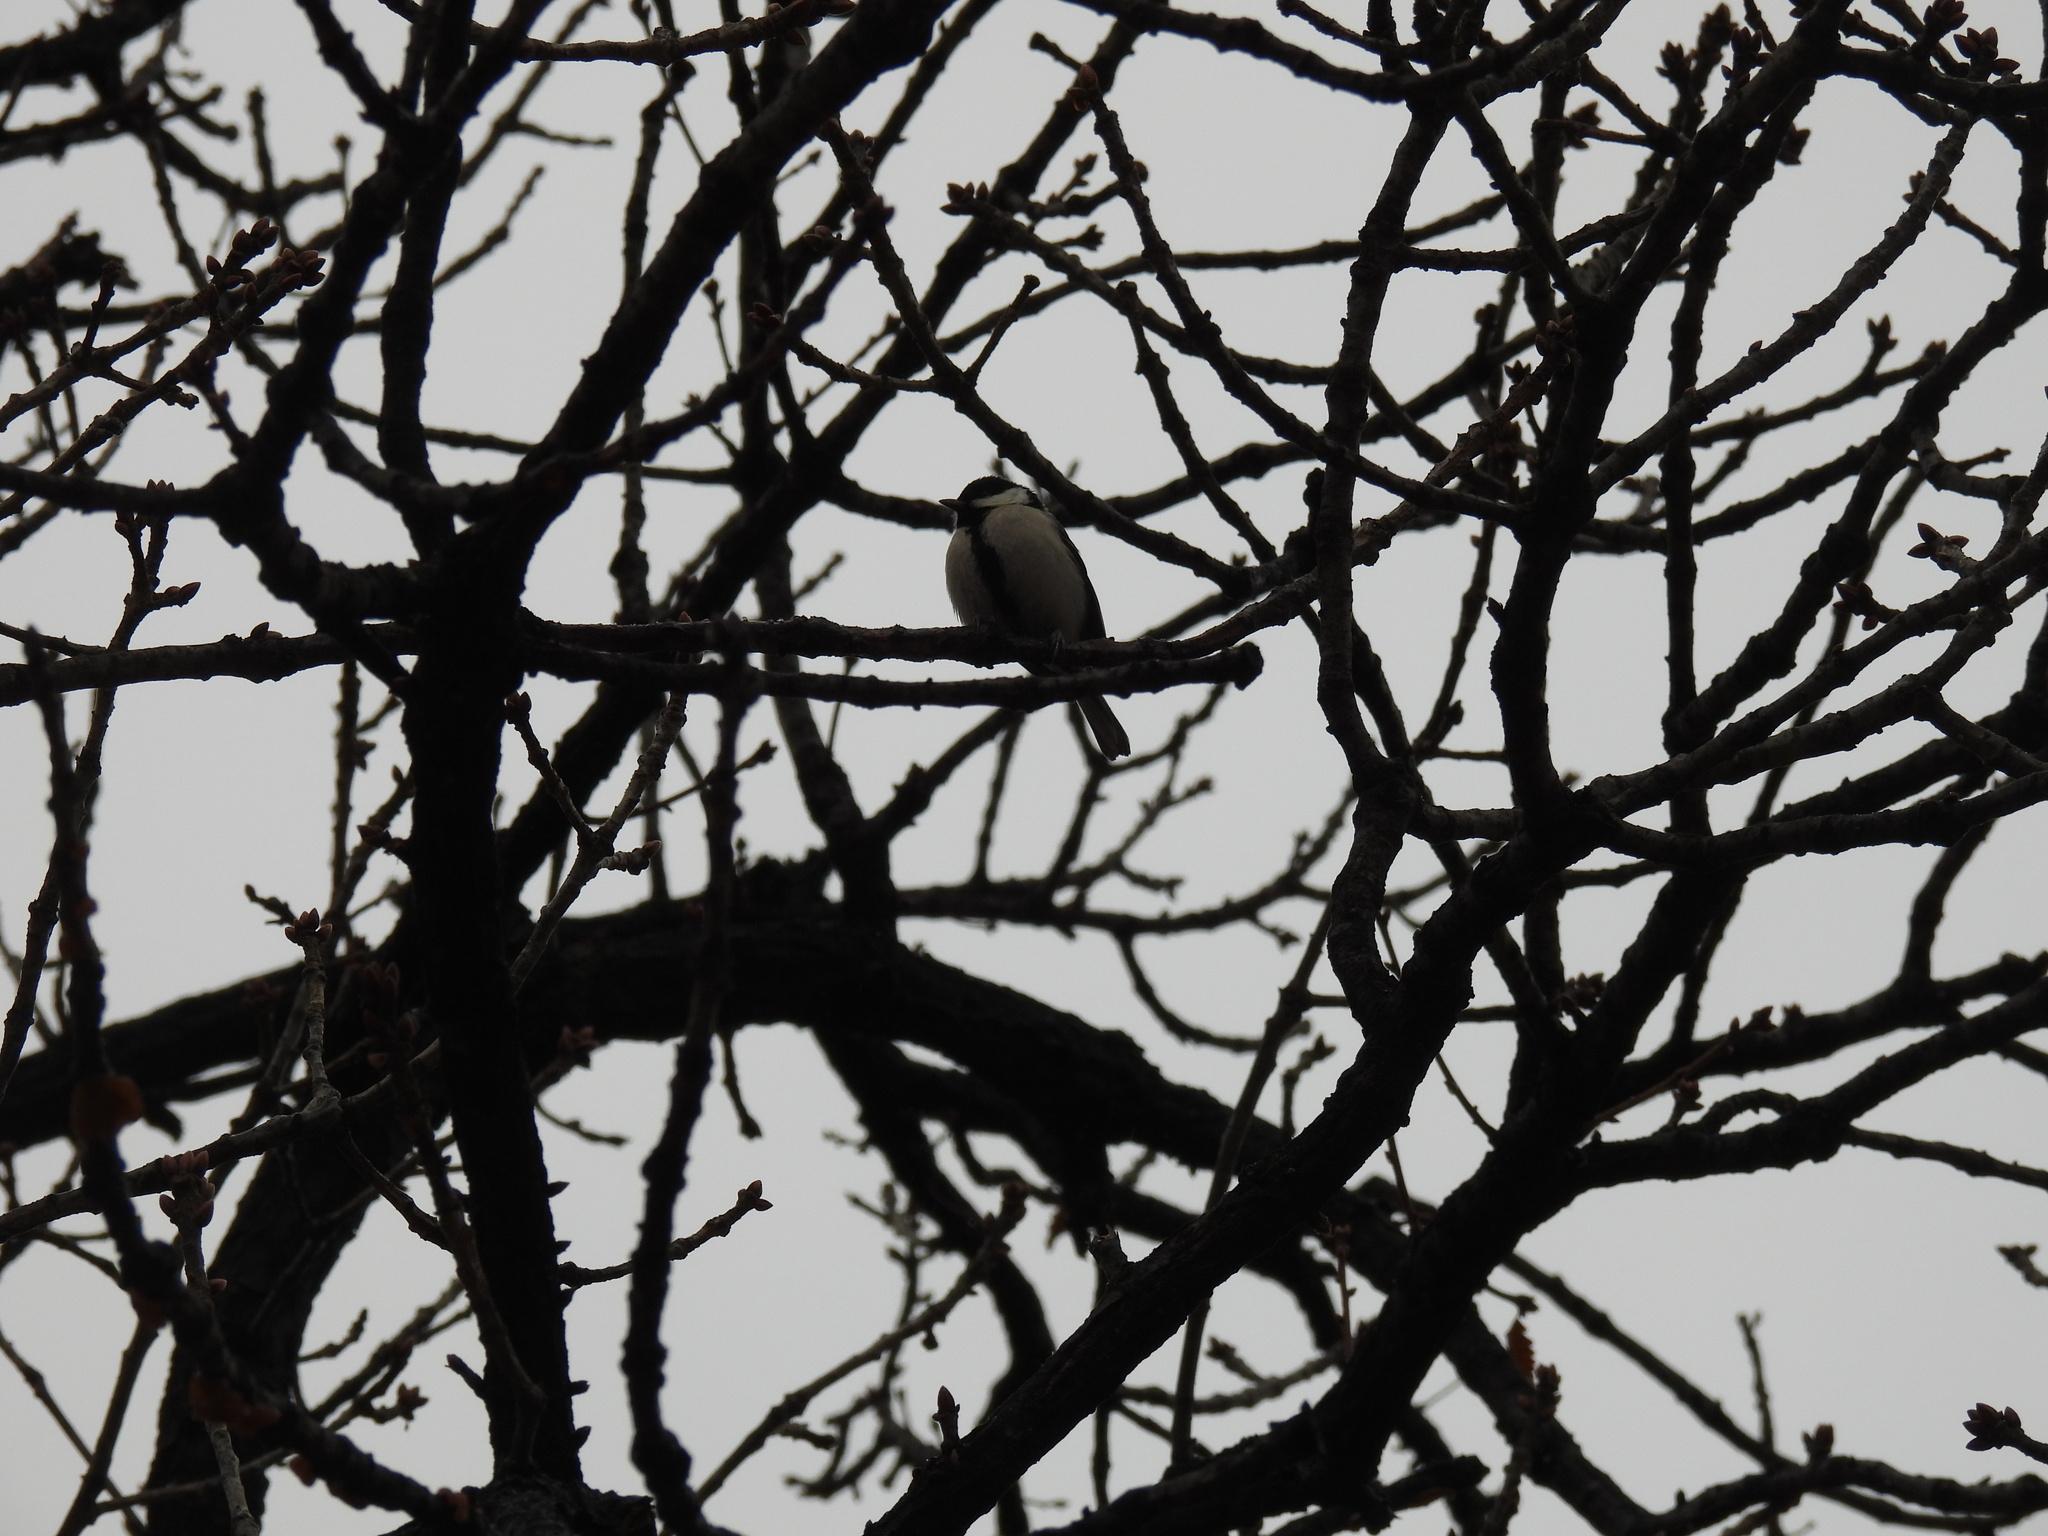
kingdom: Animalia
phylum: Chordata
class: Aves
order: Passeriformes
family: Paridae
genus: Parus
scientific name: Parus minor
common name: Japanese tit
